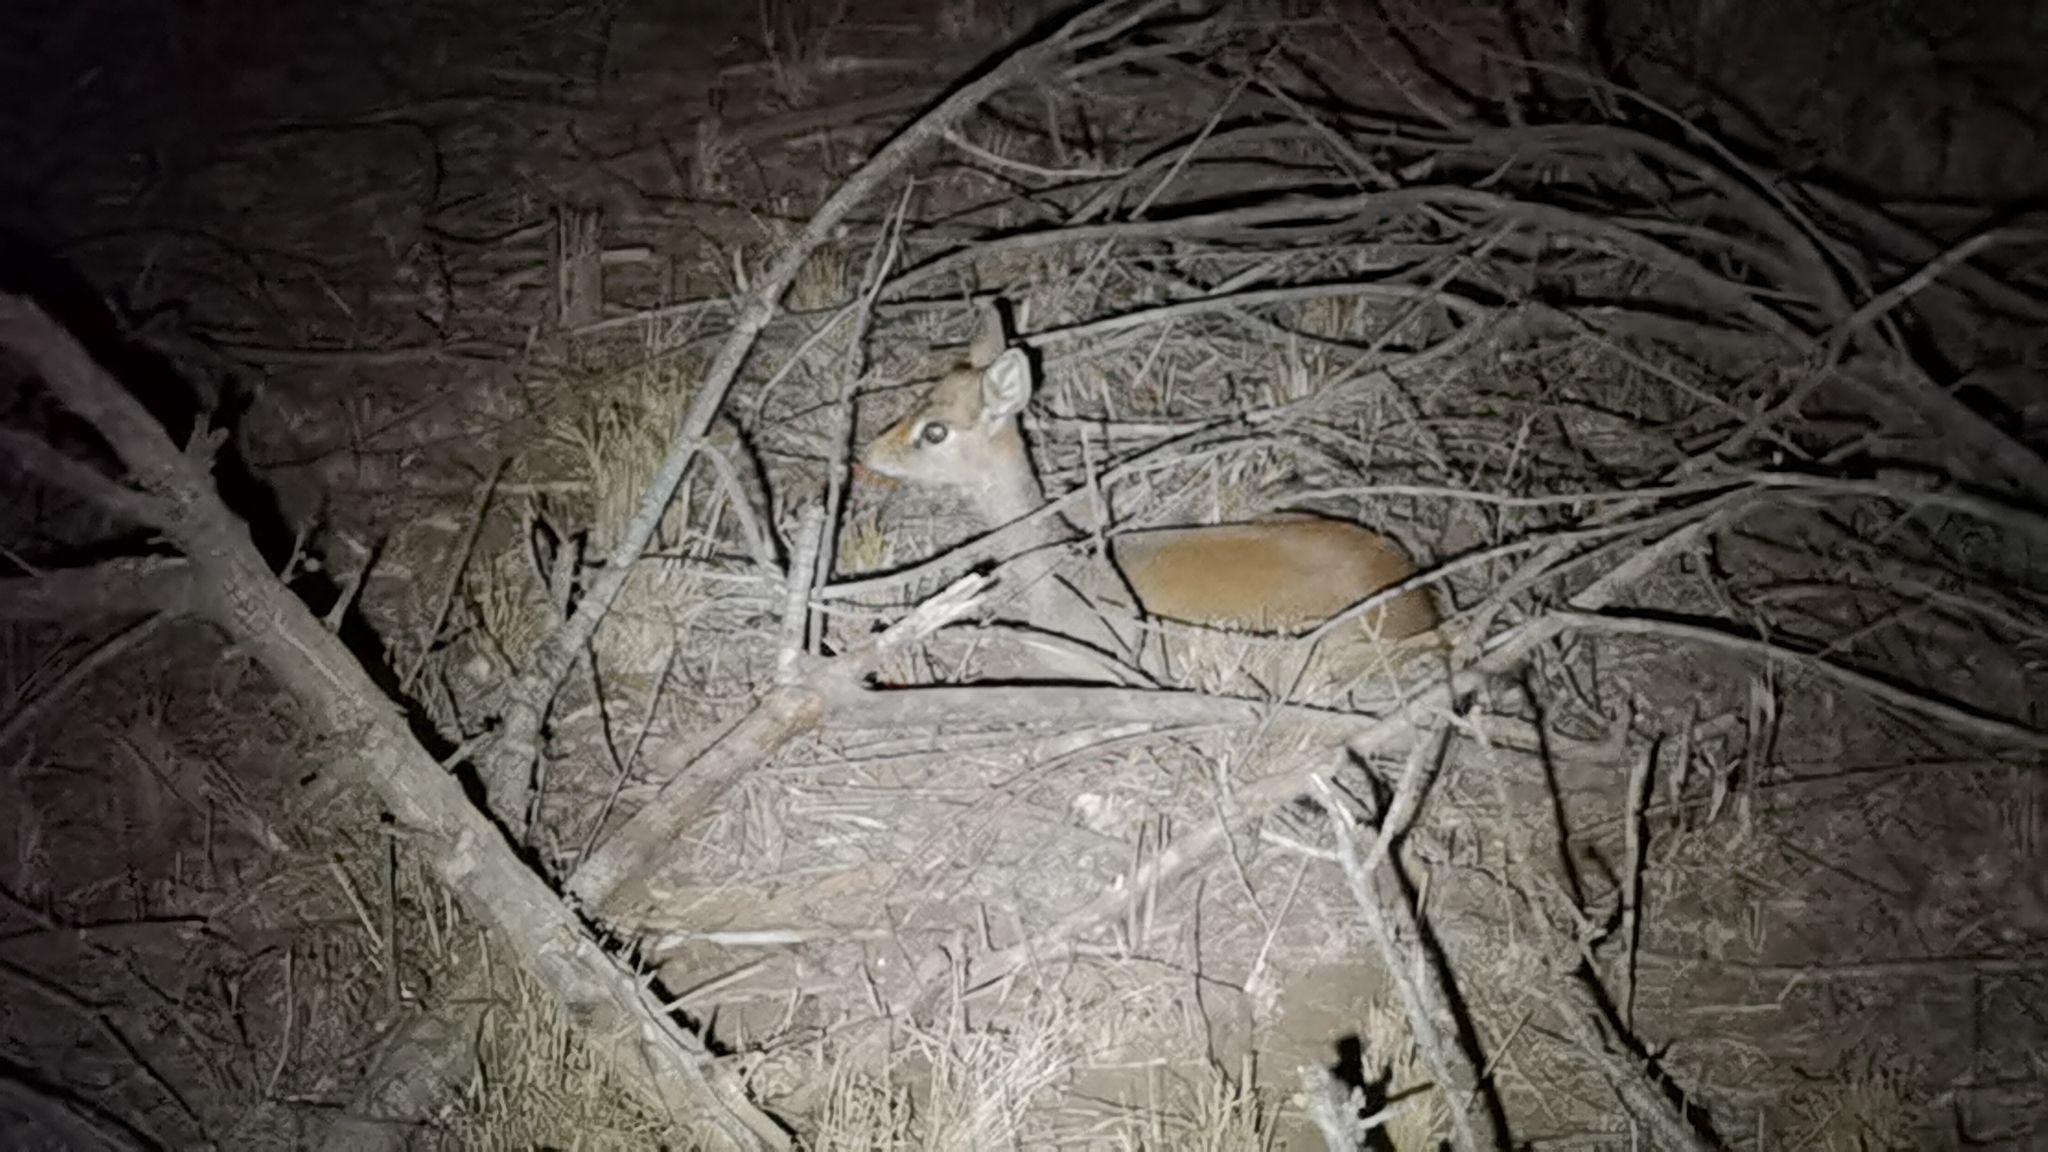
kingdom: Animalia
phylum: Chordata
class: Mammalia
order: Artiodactyla
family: Bovidae
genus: Madoqua
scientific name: Madoqua
